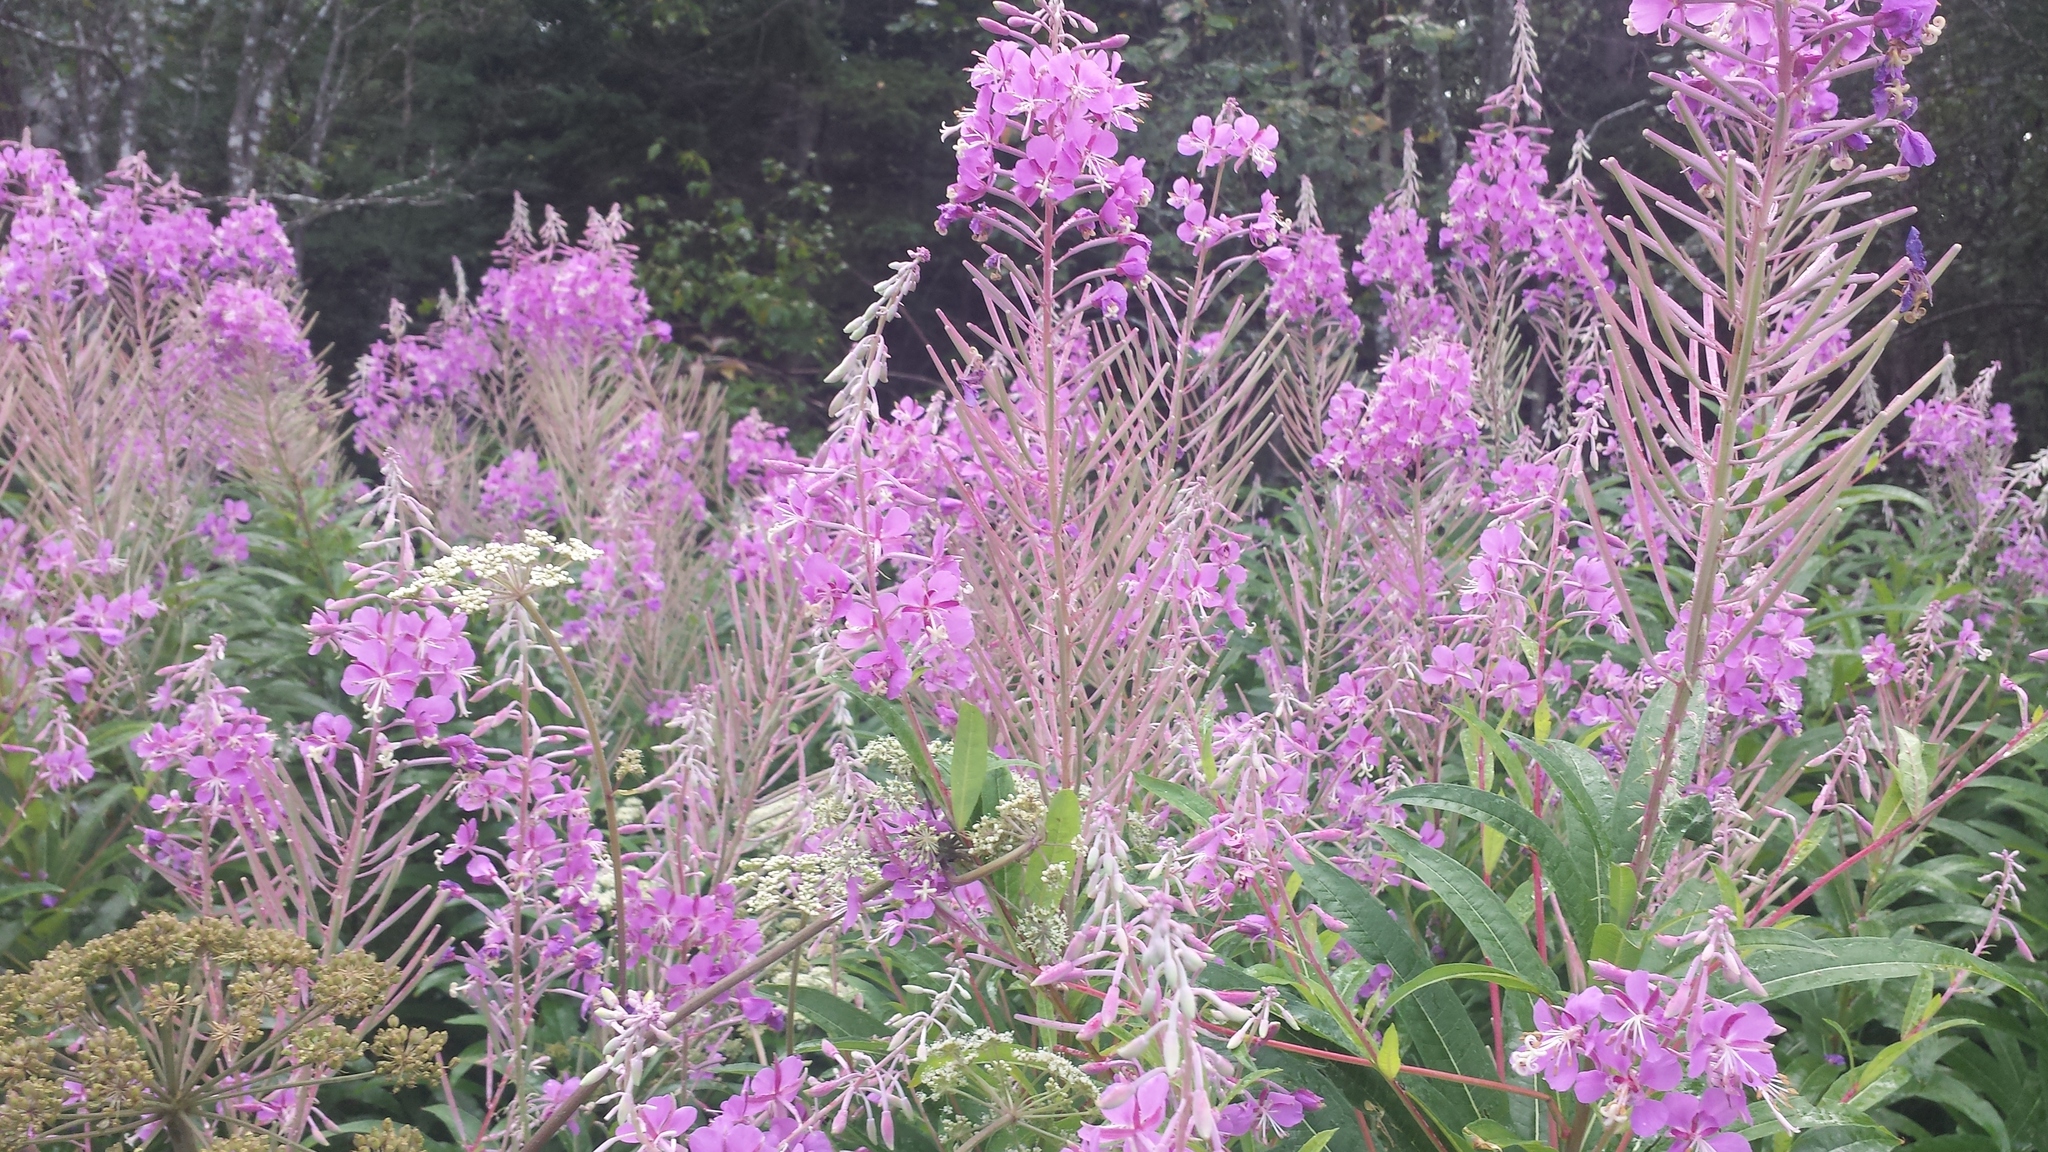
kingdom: Plantae
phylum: Tracheophyta
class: Magnoliopsida
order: Myrtales
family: Onagraceae
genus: Chamaenerion
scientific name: Chamaenerion angustifolium
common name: Fireweed
